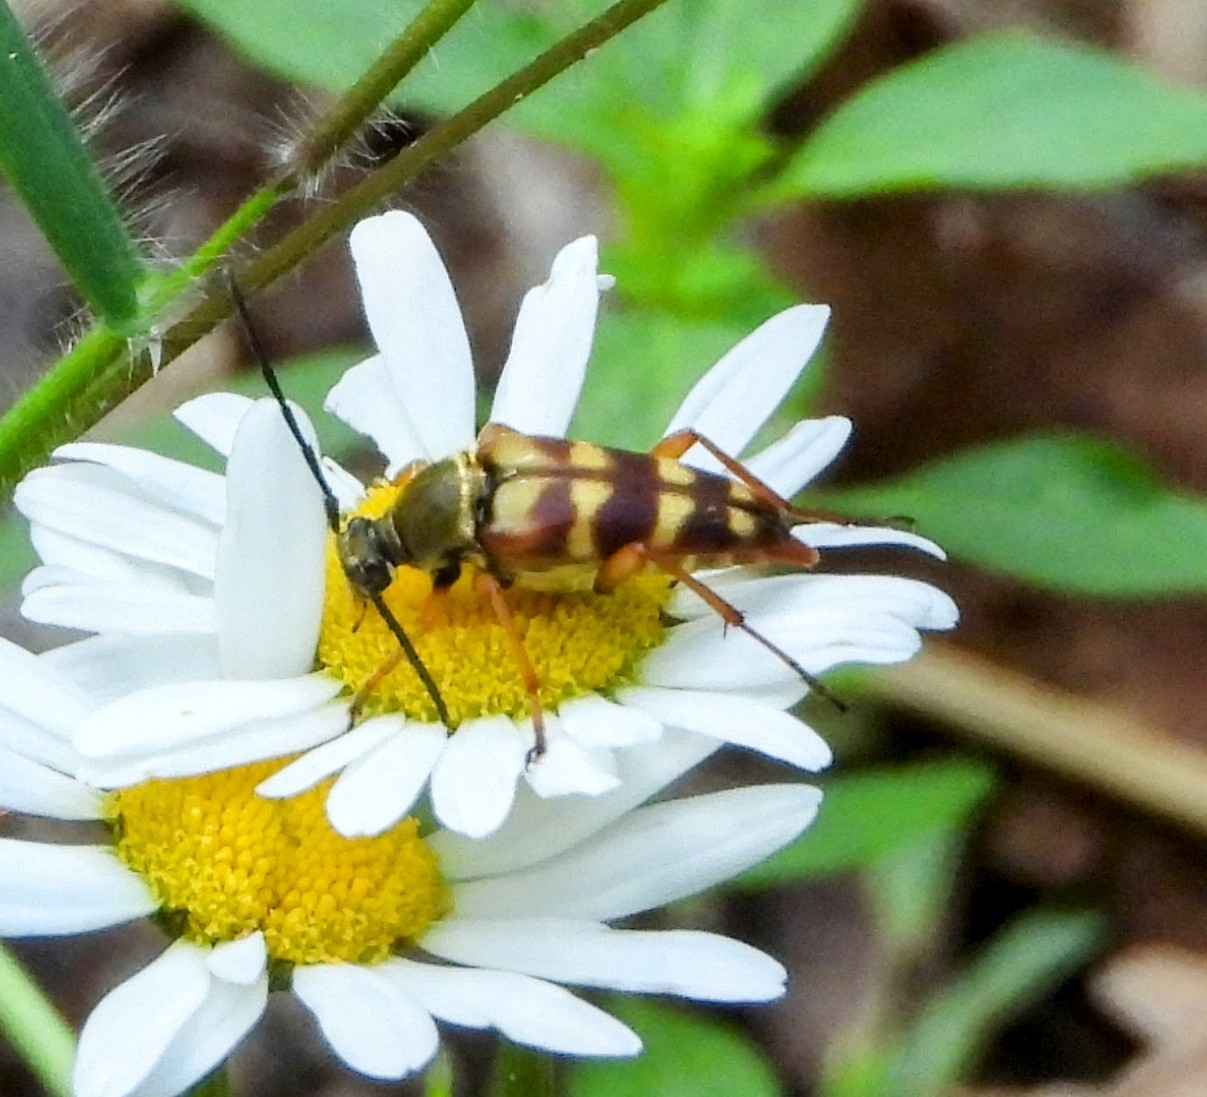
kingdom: Animalia
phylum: Arthropoda
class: Insecta
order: Coleoptera
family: Cerambycidae
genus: Typocerus
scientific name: Typocerus velutinus
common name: Banded longhorn beetle
